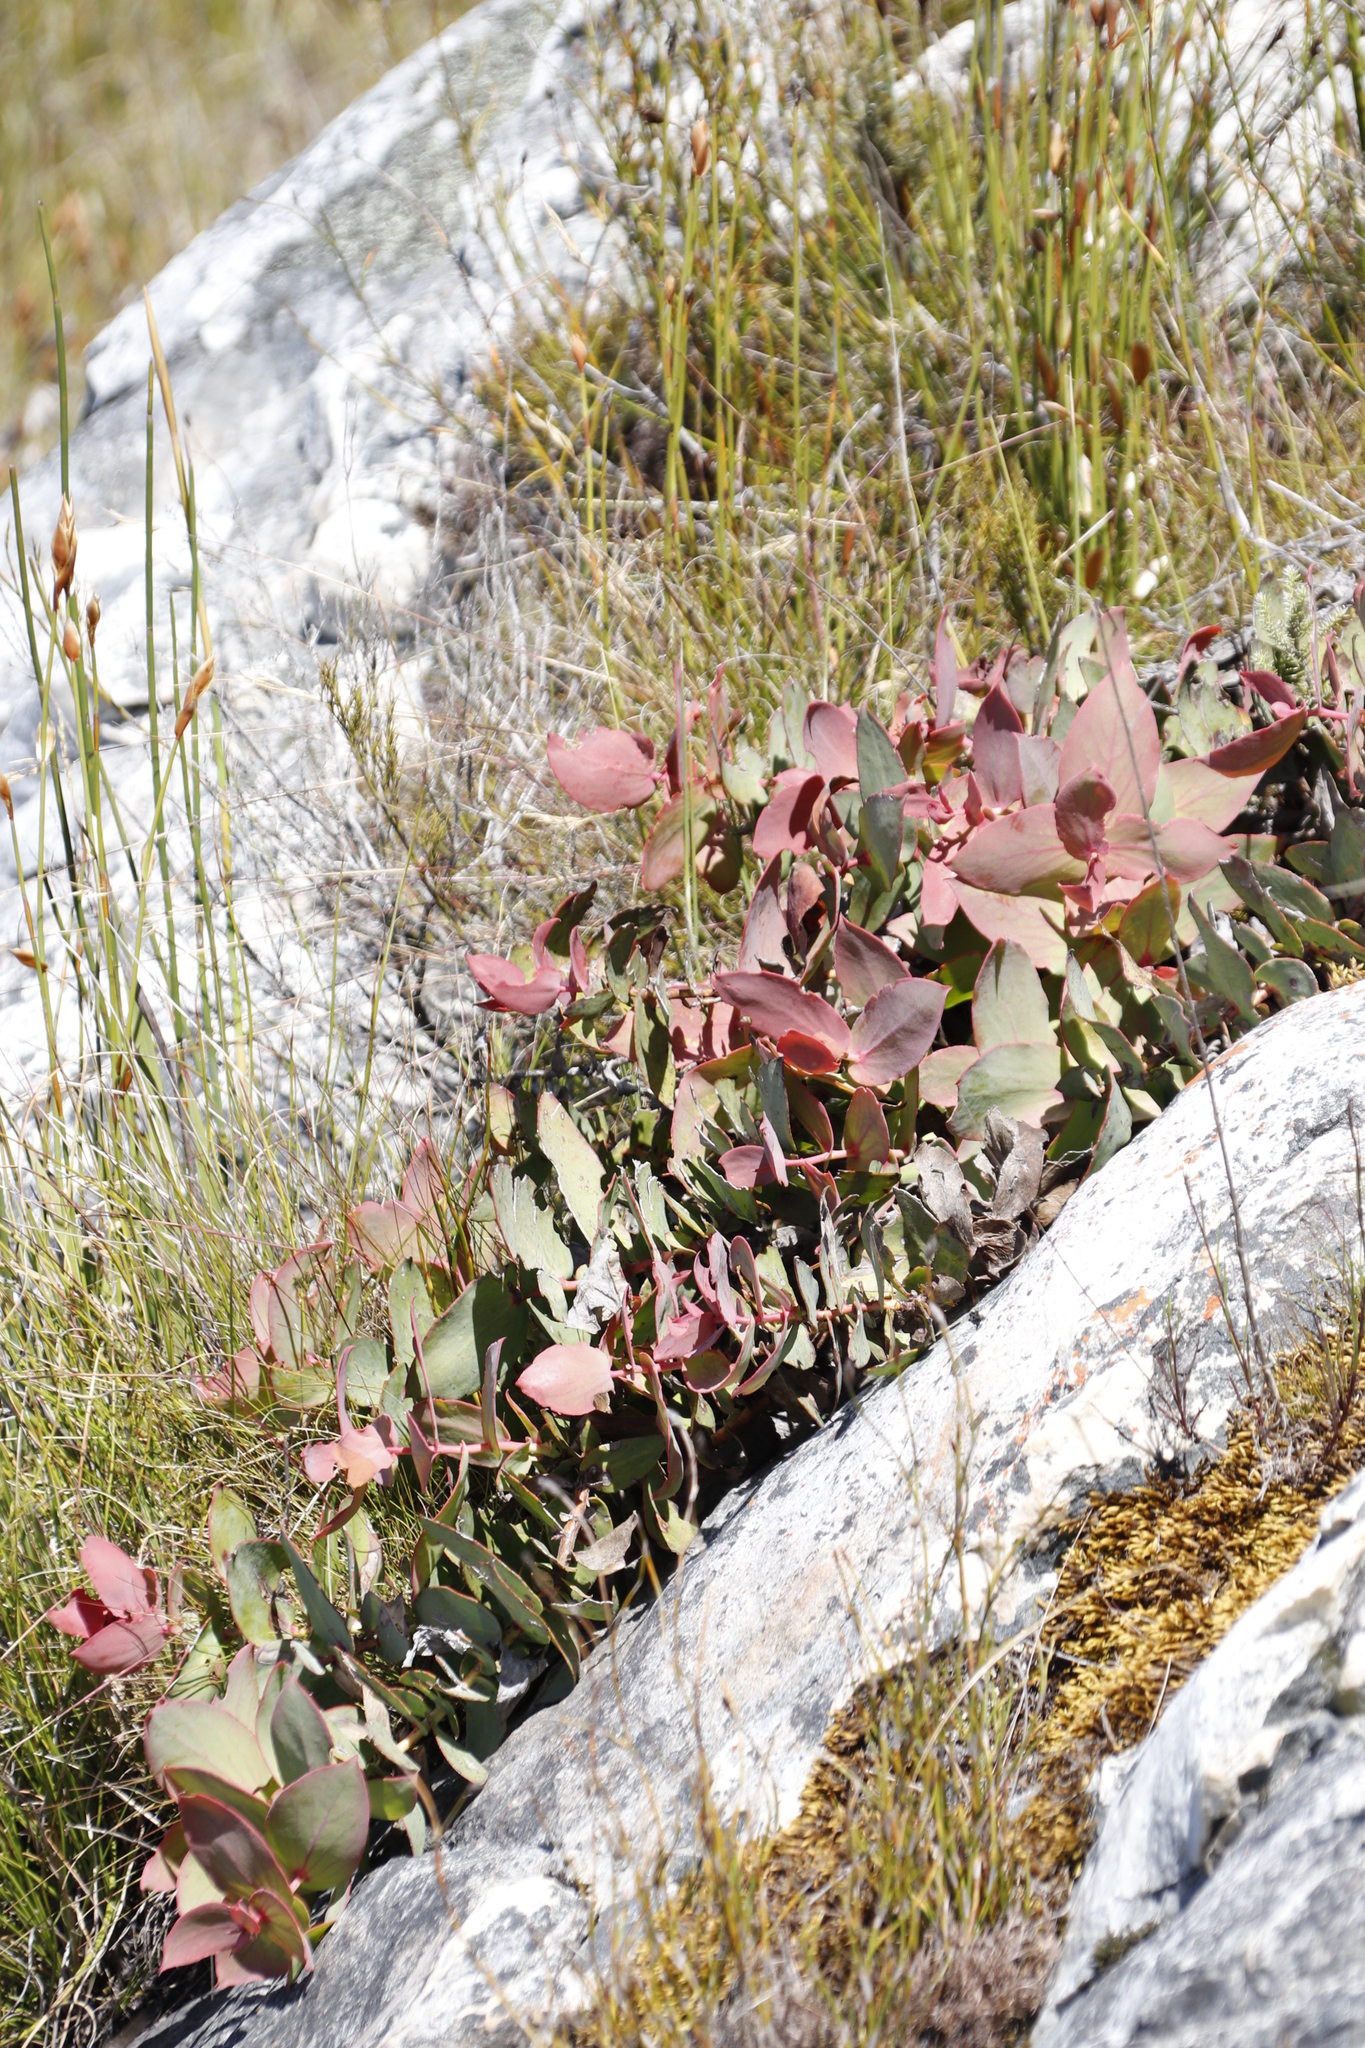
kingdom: Plantae
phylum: Tracheophyta
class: Magnoliopsida
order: Proteales
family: Proteaceae
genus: Protea
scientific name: Protea amplexicaulis
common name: Clasping-leaf sugarbush
